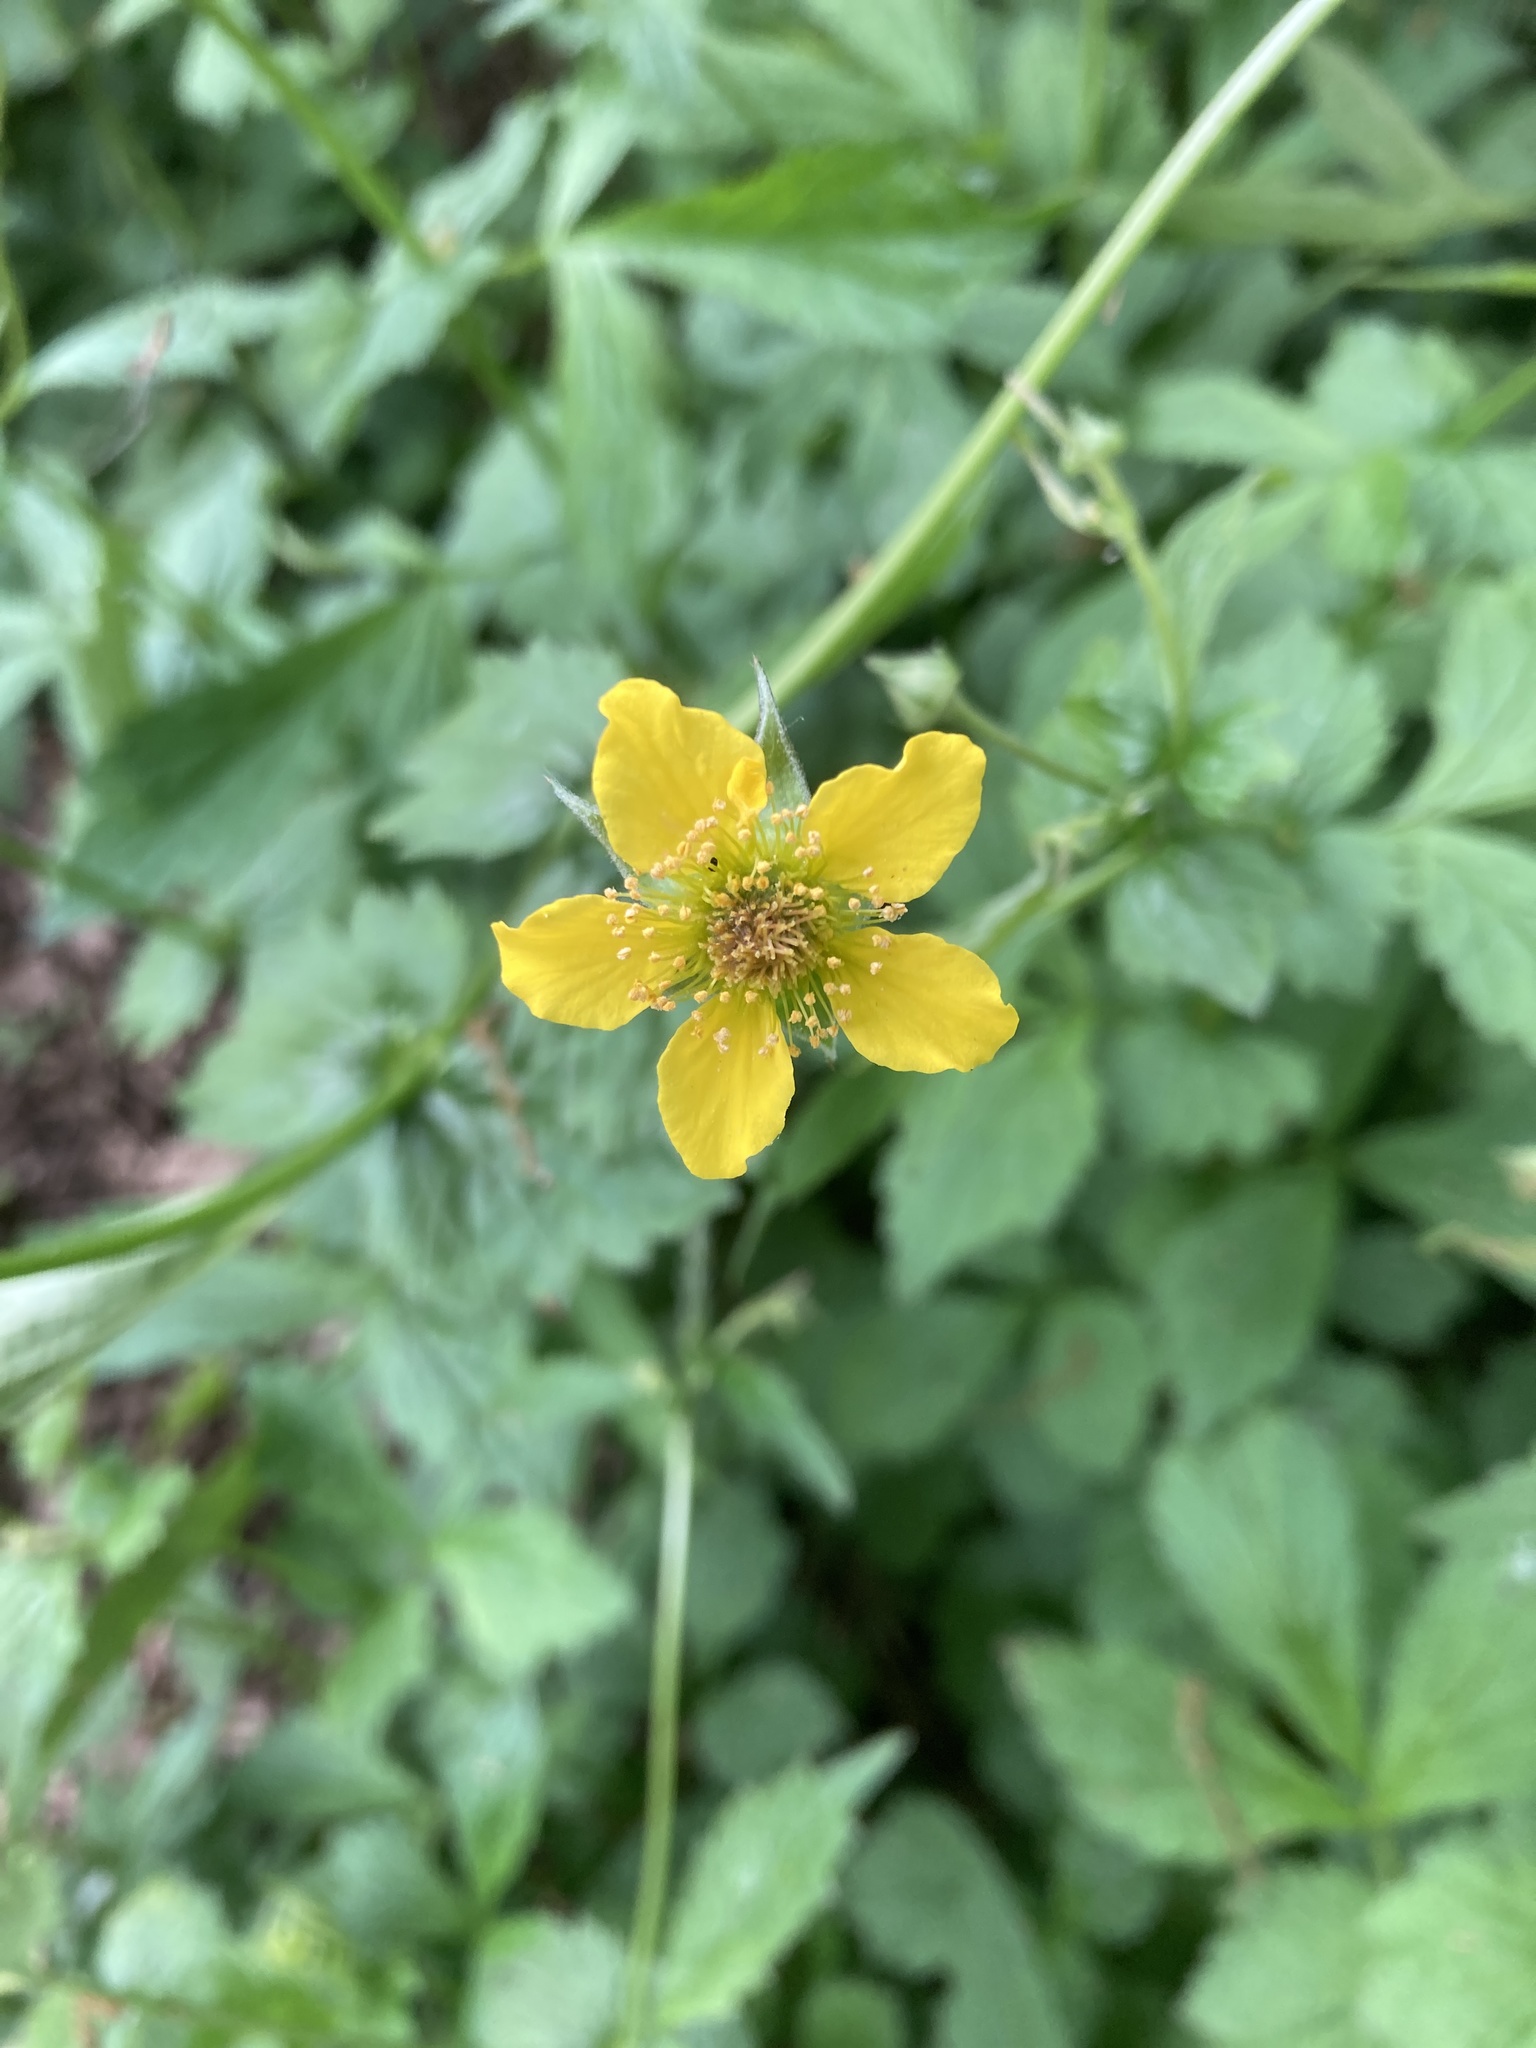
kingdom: Plantae
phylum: Tracheophyta
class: Magnoliopsida
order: Rosales
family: Rosaceae
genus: Geum
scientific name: Geum urbanum
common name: Wood avens
